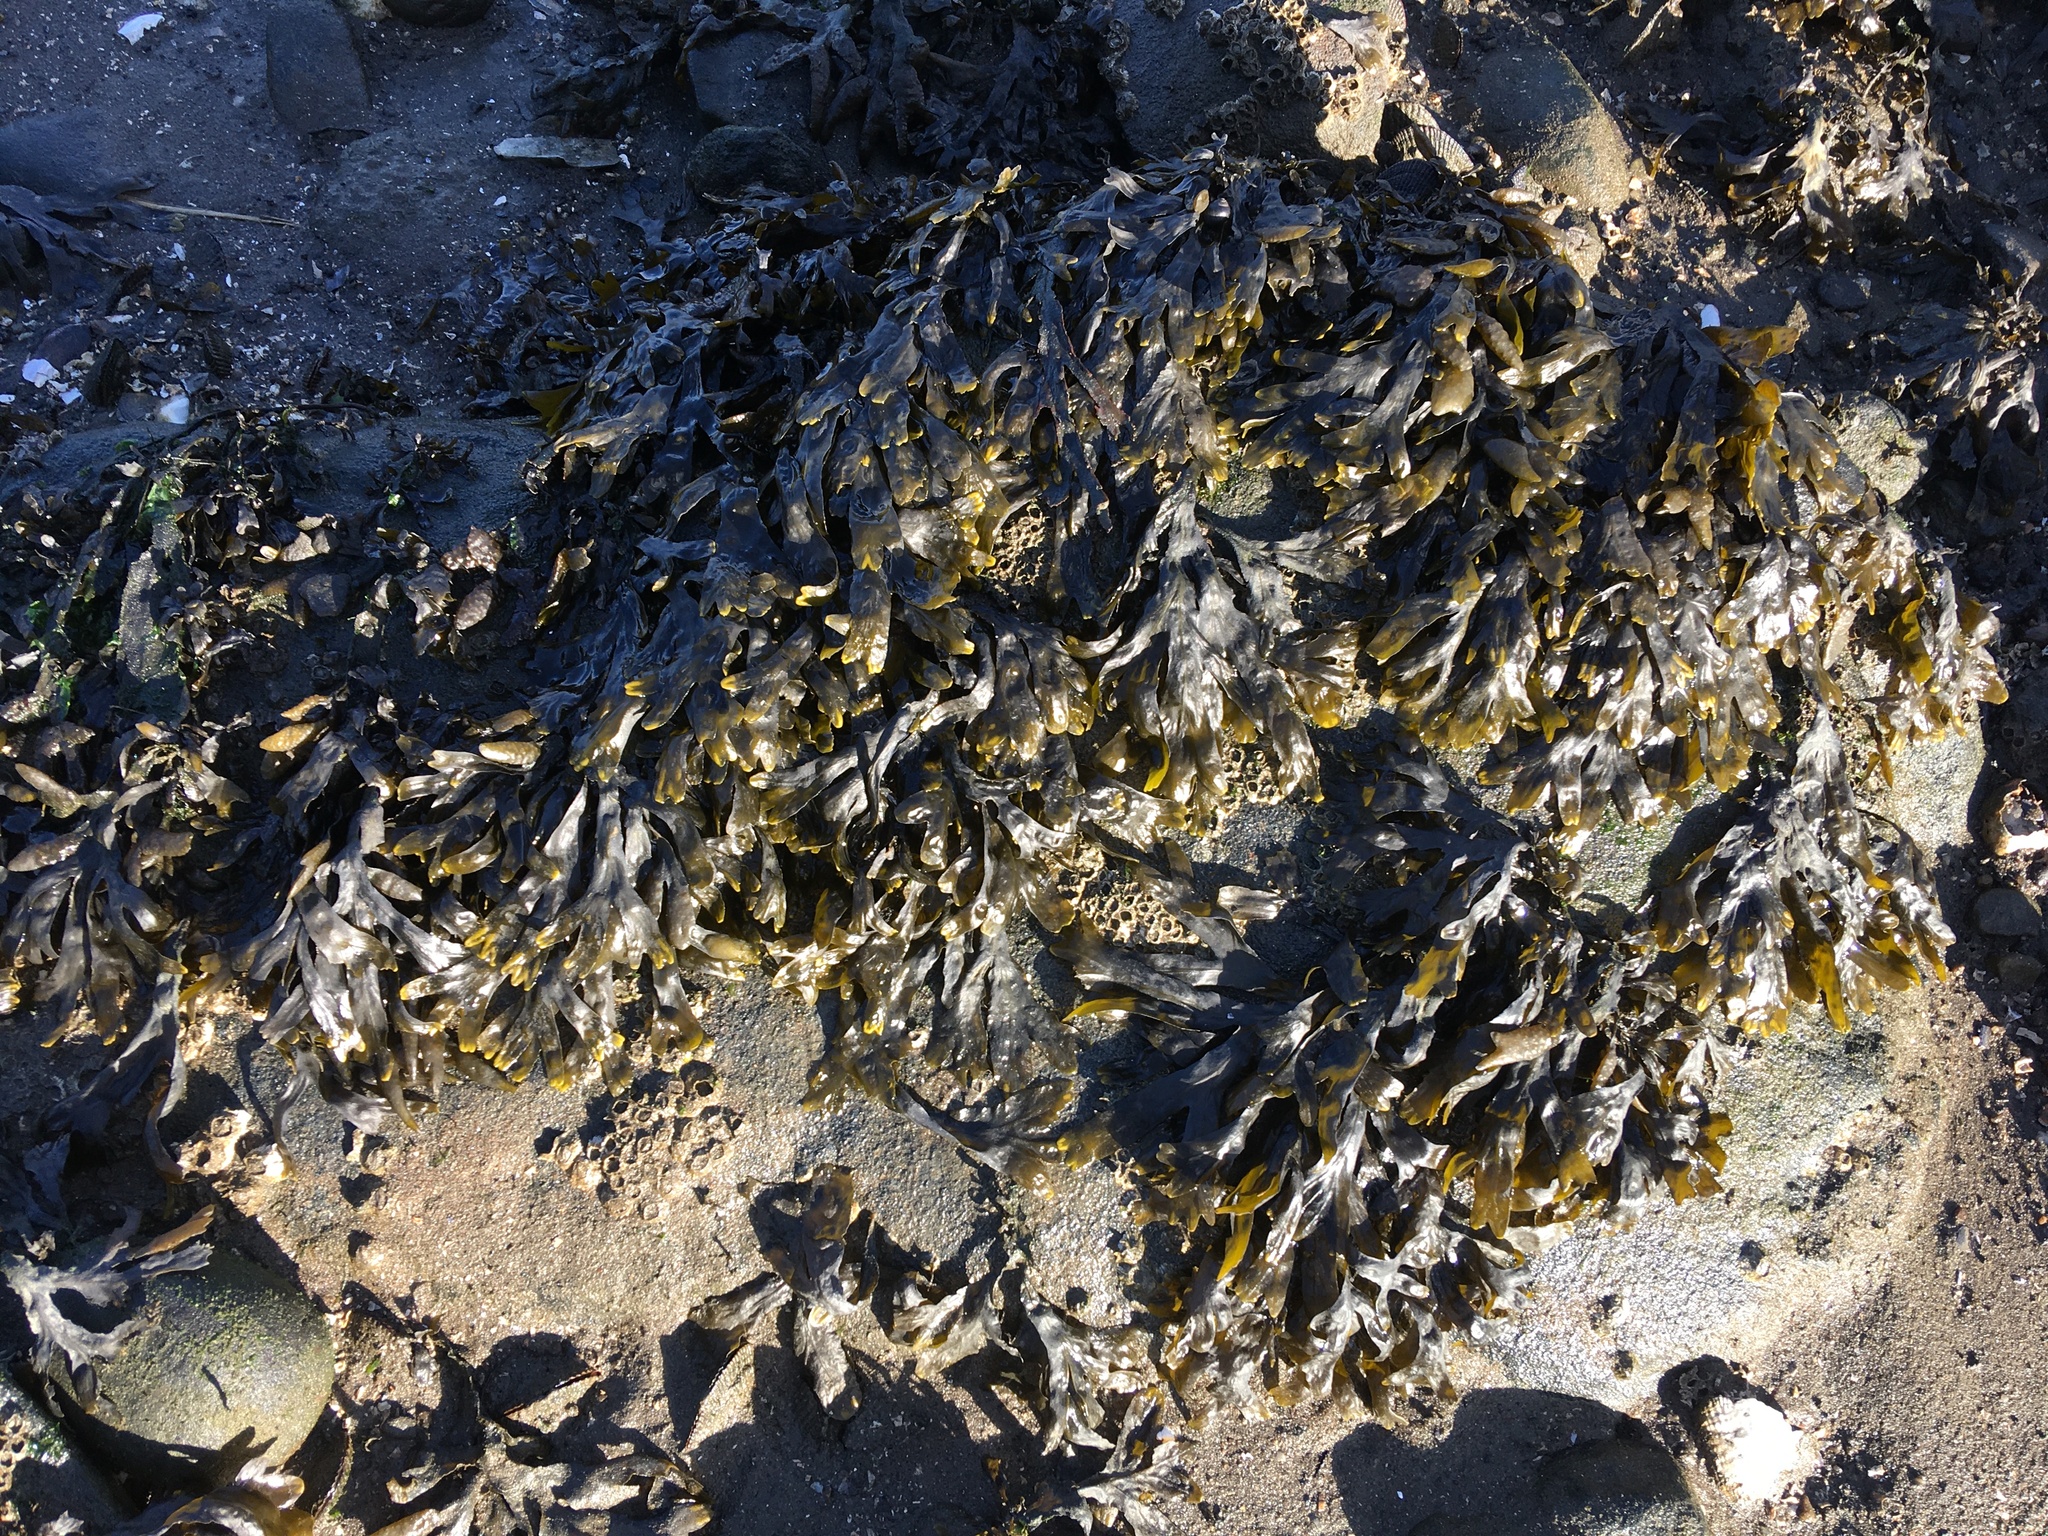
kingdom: Chromista
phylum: Ochrophyta
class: Phaeophyceae
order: Fucales
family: Fucaceae
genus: Fucus
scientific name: Fucus vesiculosus
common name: Bladder wrack
